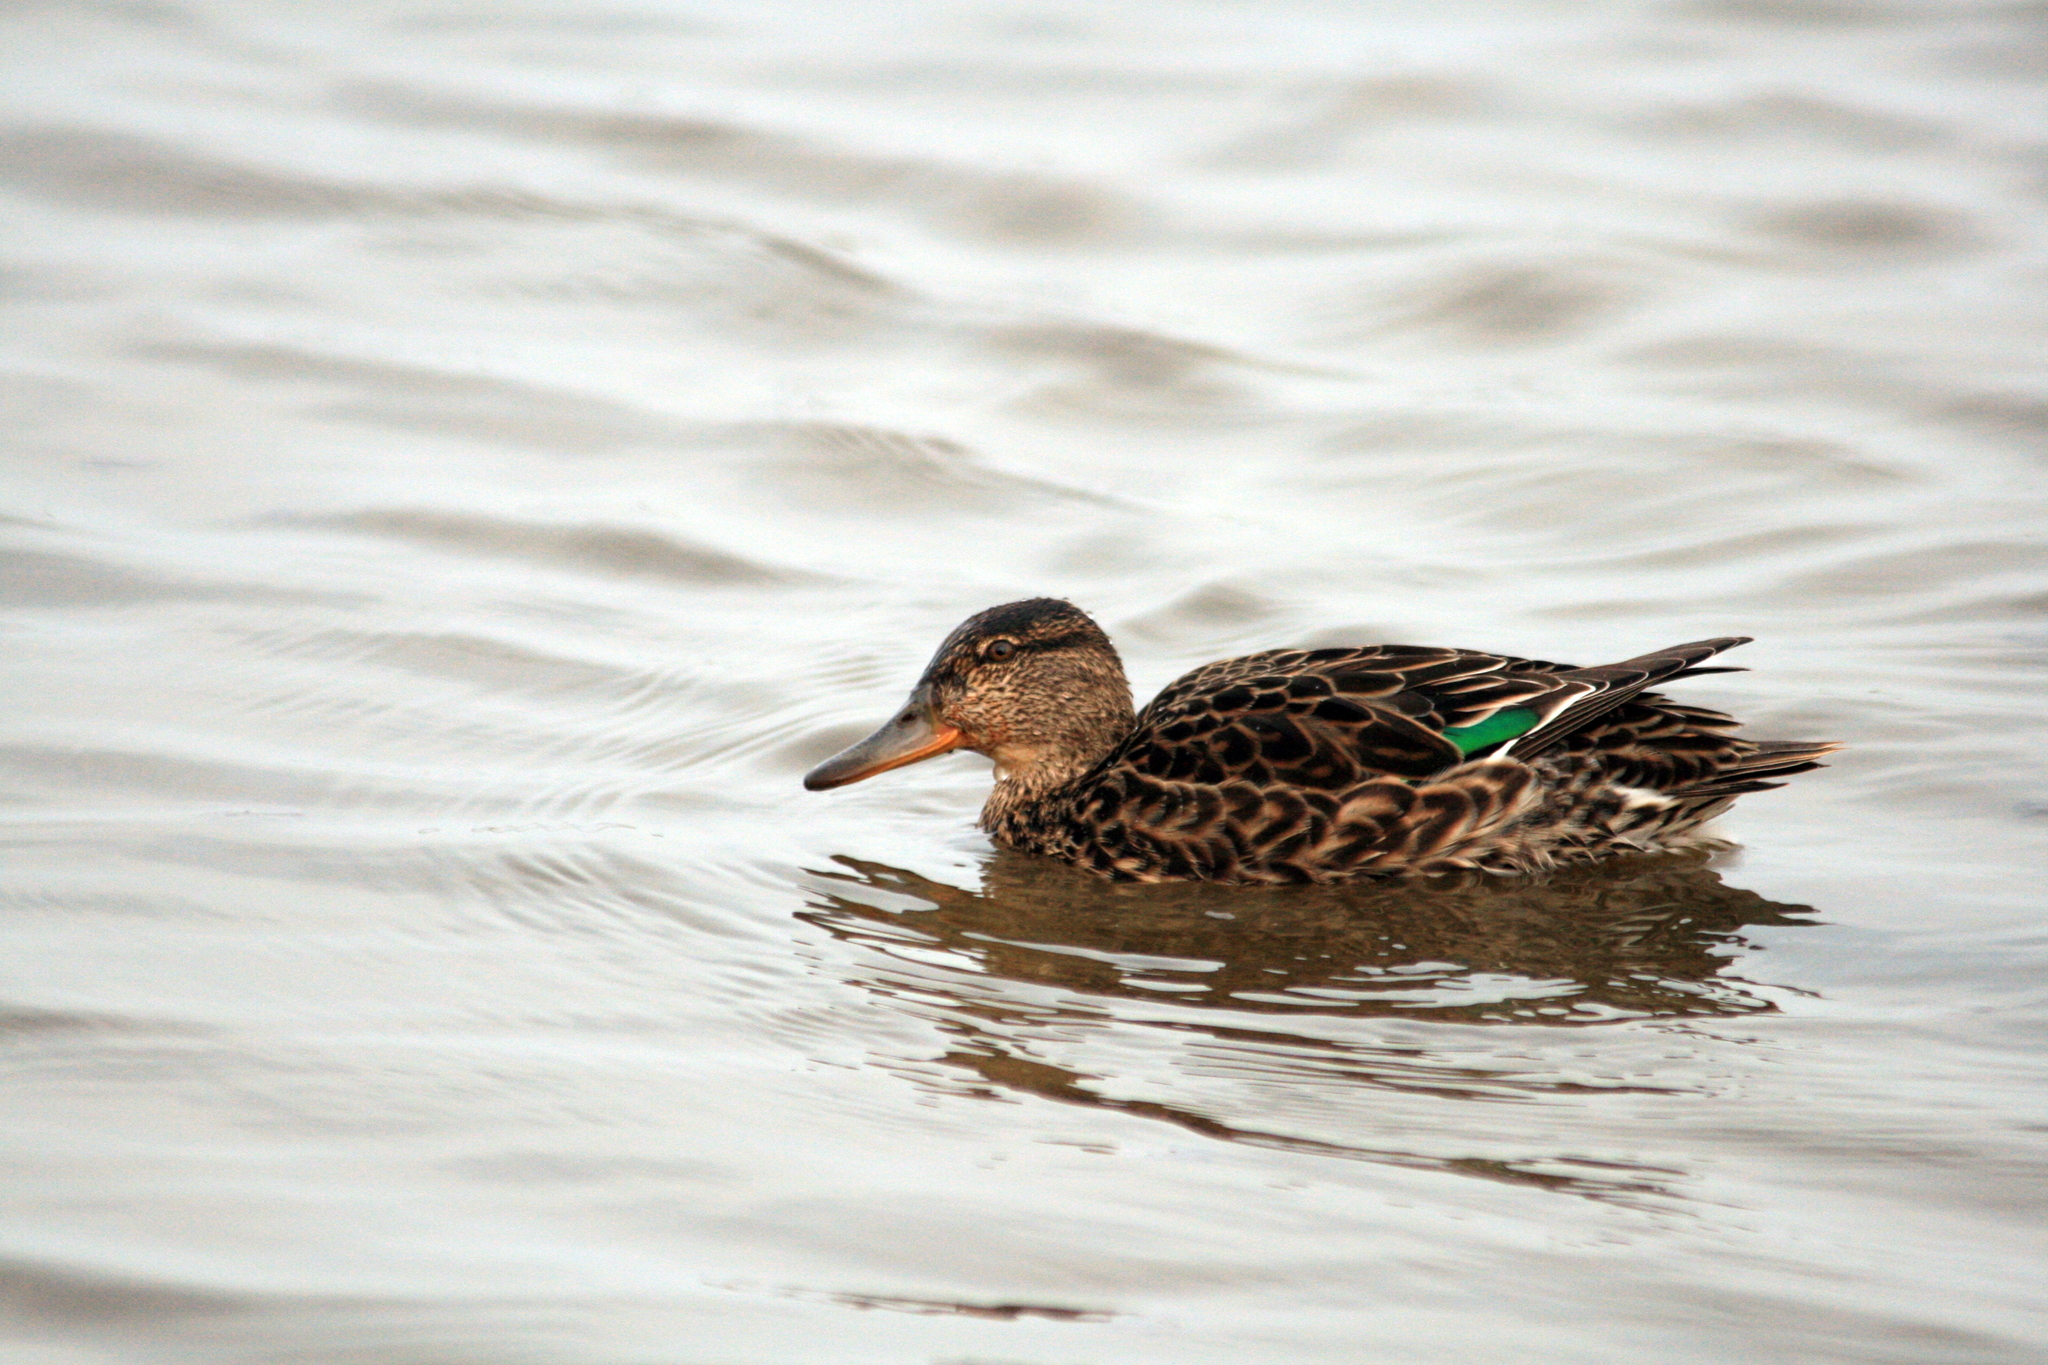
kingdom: Animalia
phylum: Chordata
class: Aves
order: Anseriformes
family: Anatidae
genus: Anas
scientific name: Anas crecca
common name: Eurasian teal
